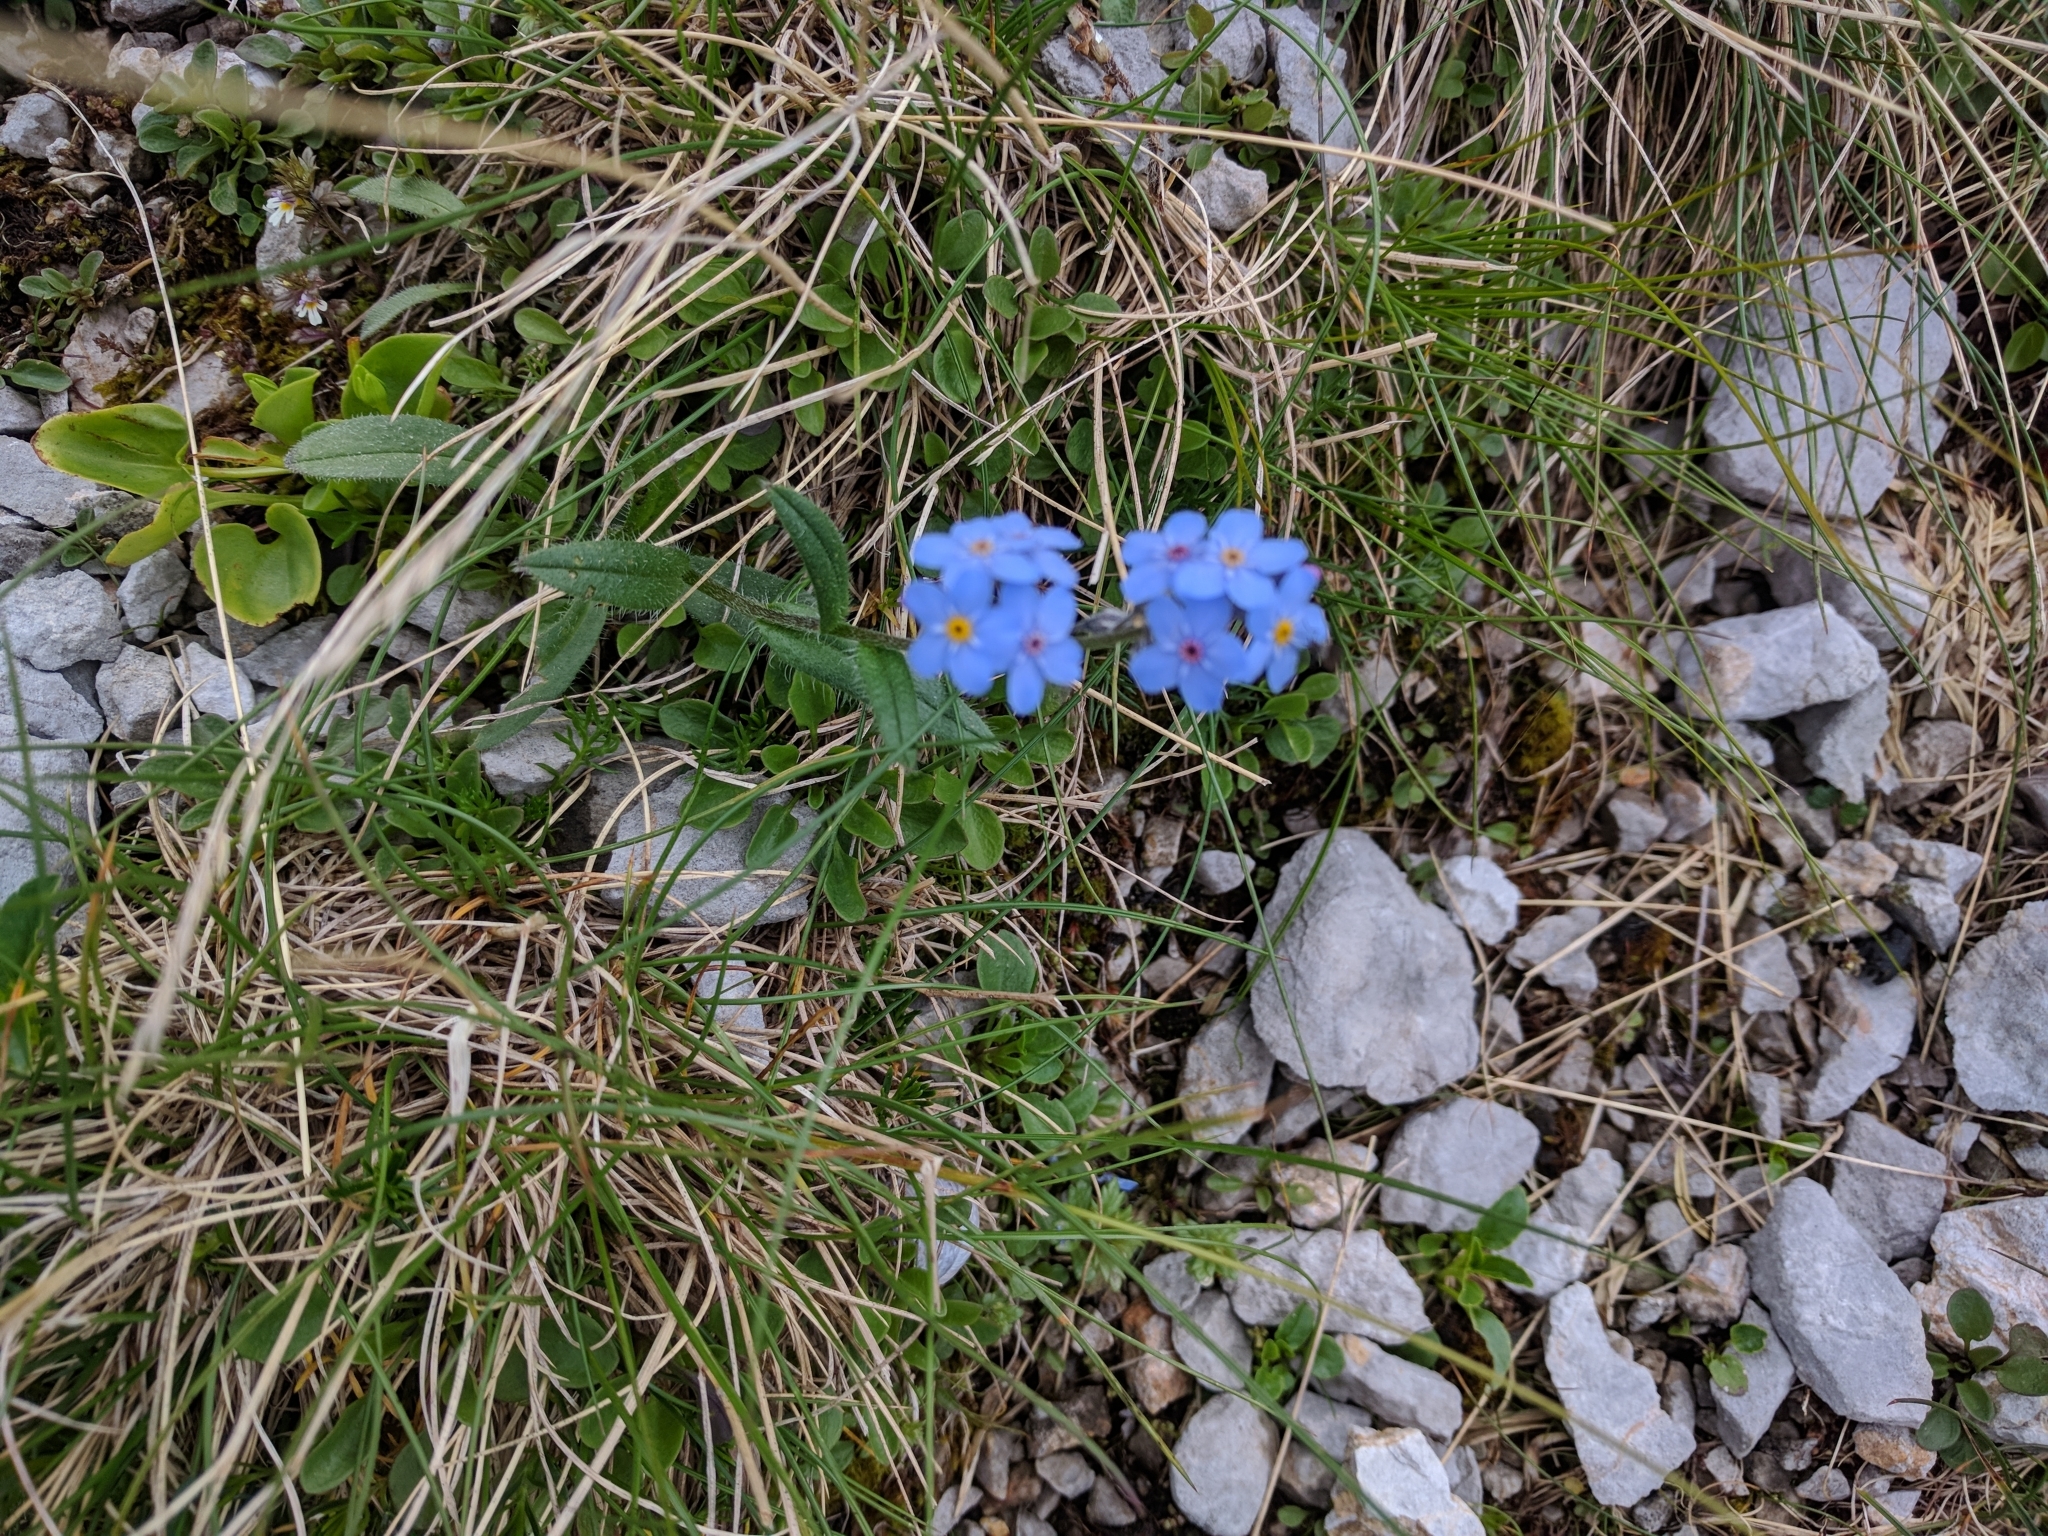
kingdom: Plantae
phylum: Tracheophyta
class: Magnoliopsida
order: Boraginales
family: Boraginaceae
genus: Myosotis
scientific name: Myosotis alpestris
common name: Alpine forget-me-not
